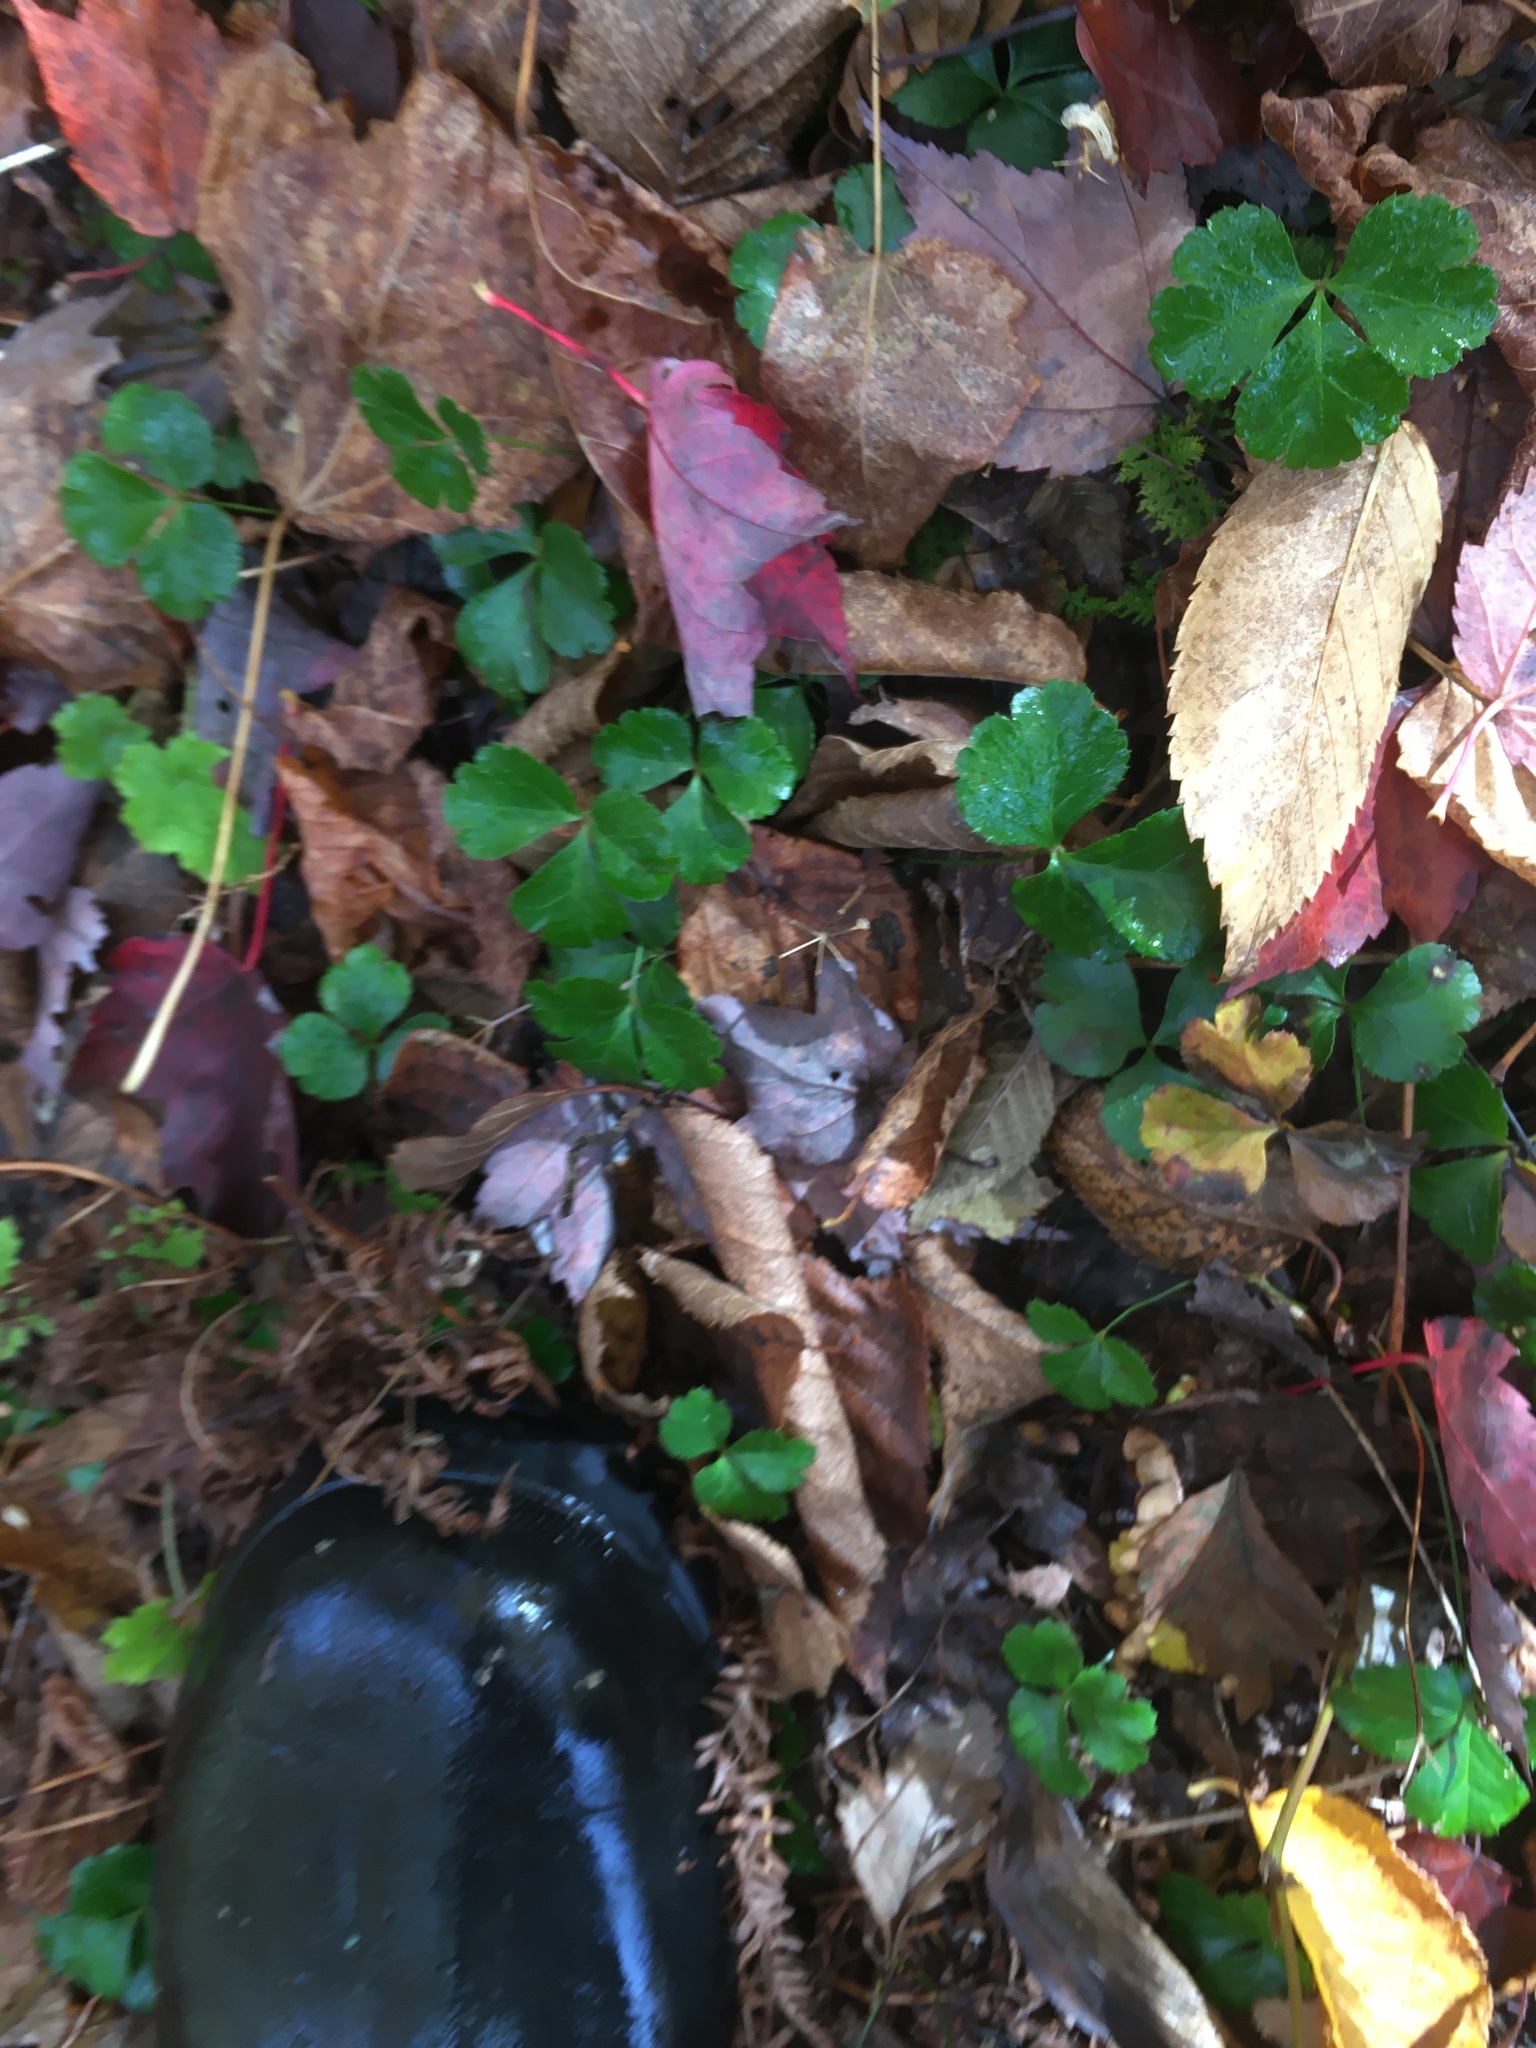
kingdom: Plantae
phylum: Tracheophyta
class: Magnoliopsida
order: Ranunculales
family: Ranunculaceae
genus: Coptis
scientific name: Coptis trifolia
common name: Canker-root
